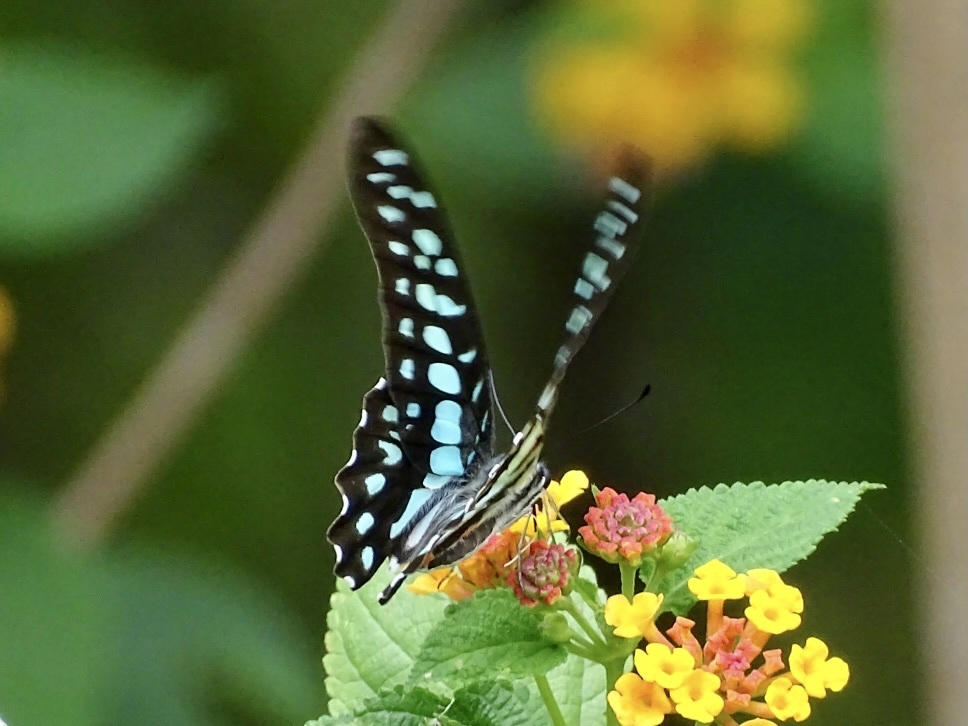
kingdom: Animalia
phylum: Arthropoda
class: Insecta
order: Lepidoptera
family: Papilionidae
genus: Graphium
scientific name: Graphium doson
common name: Common jay
